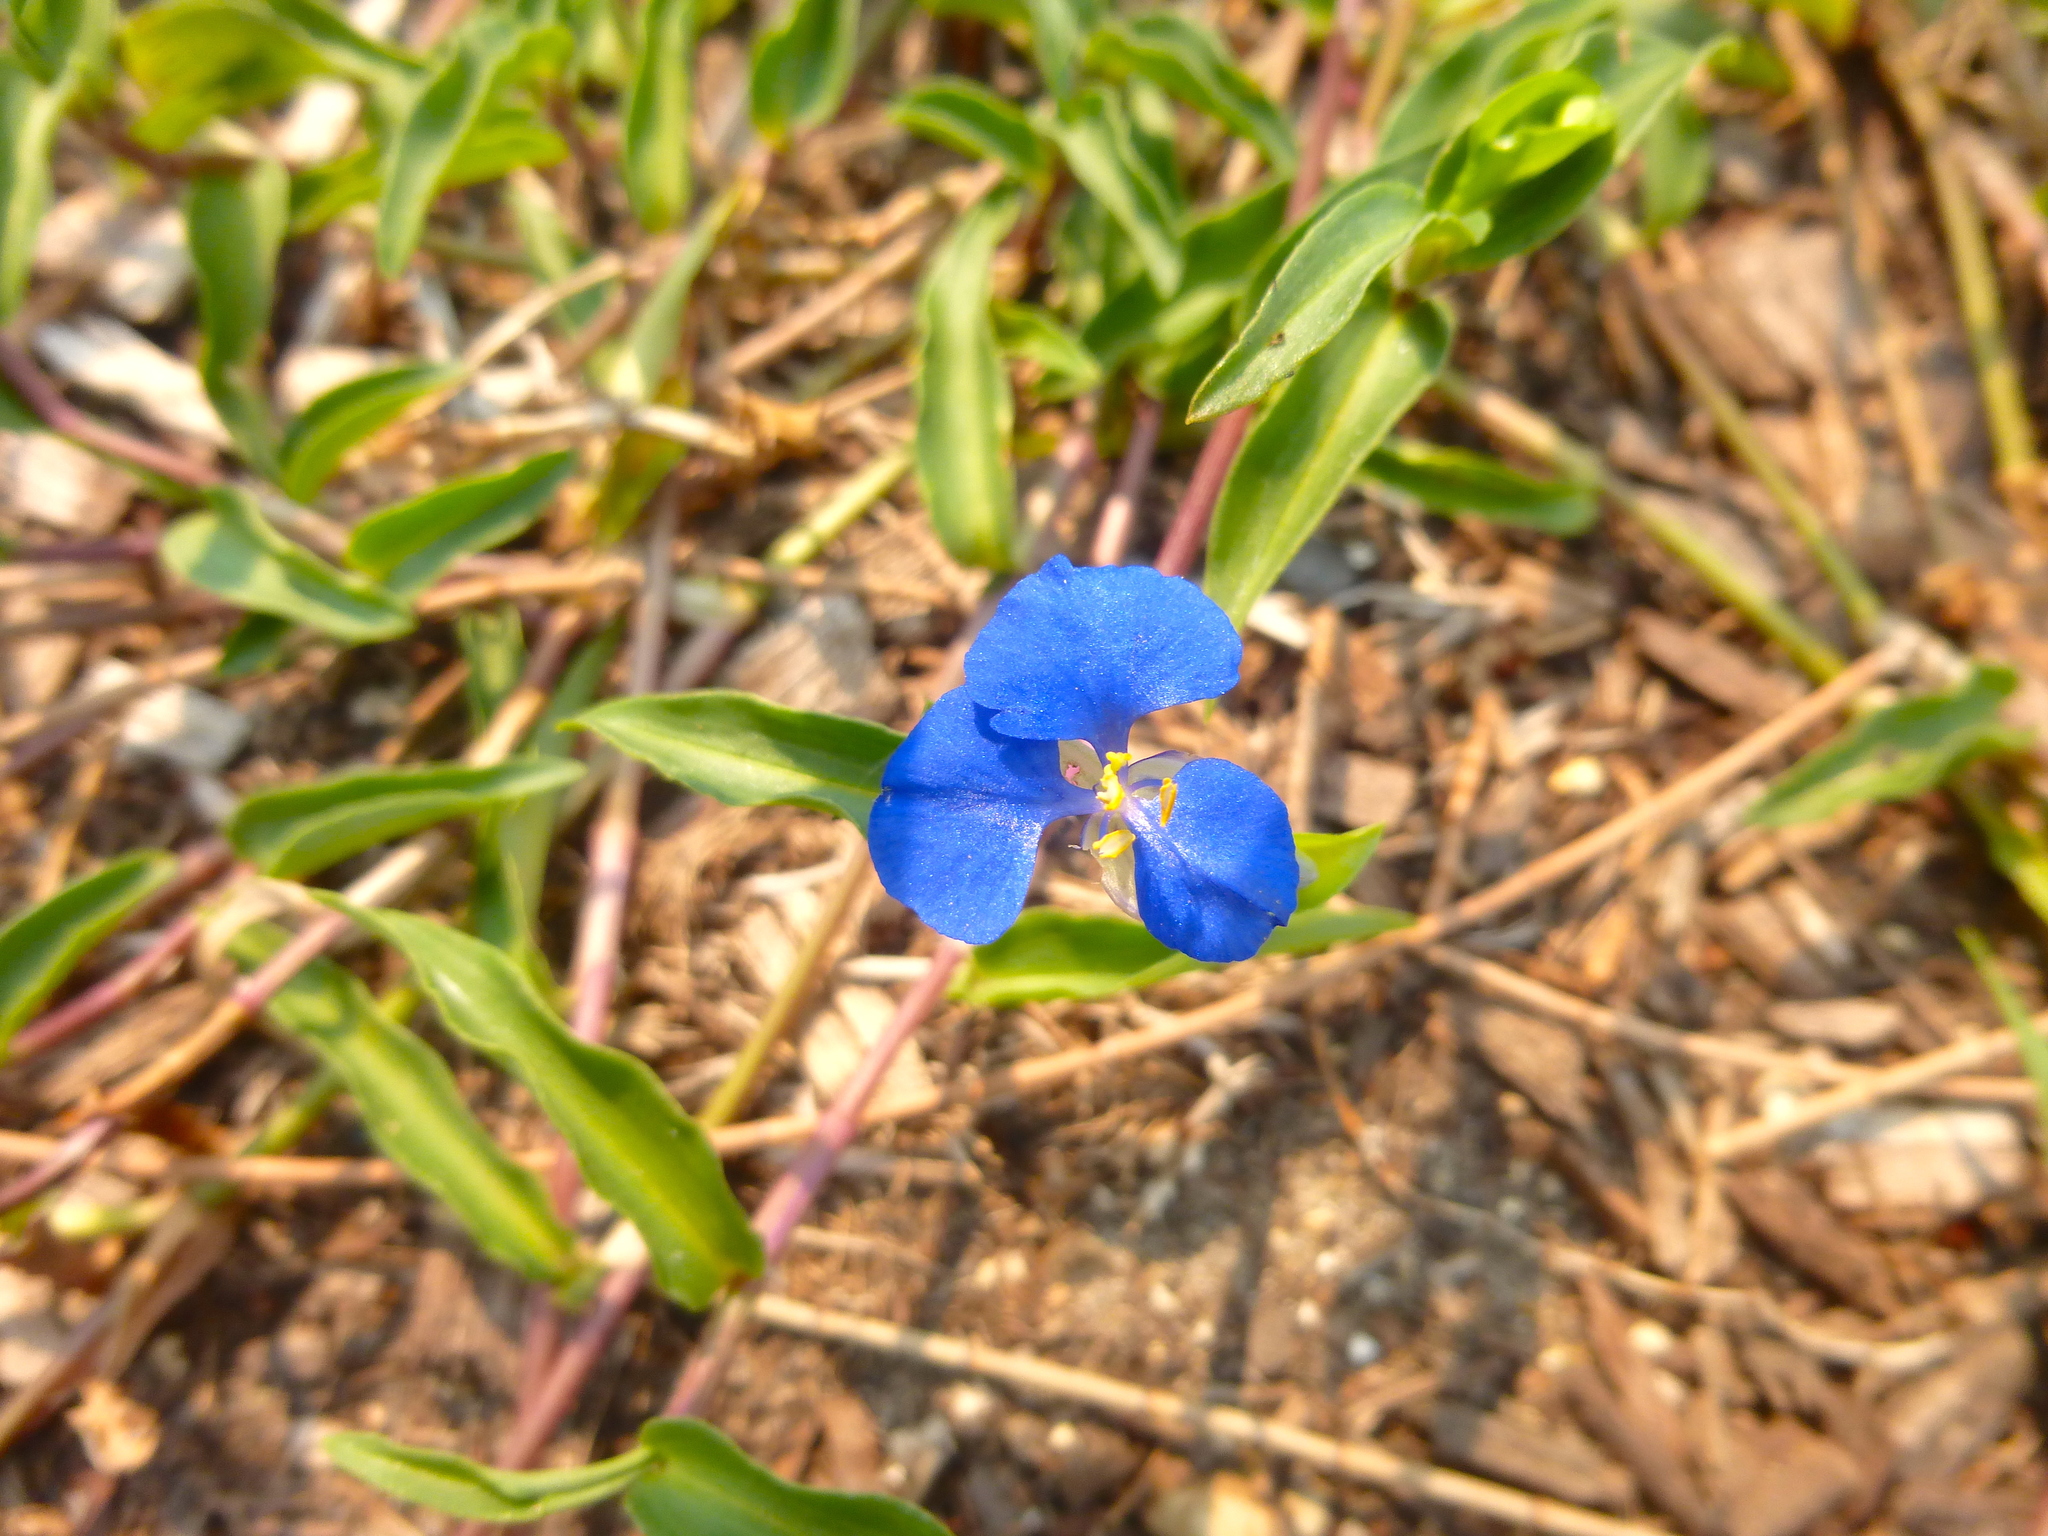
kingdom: Plantae
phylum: Tracheophyta
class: Liliopsida
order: Commelinales
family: Commelinaceae
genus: Commelina
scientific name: Commelina cyanea
